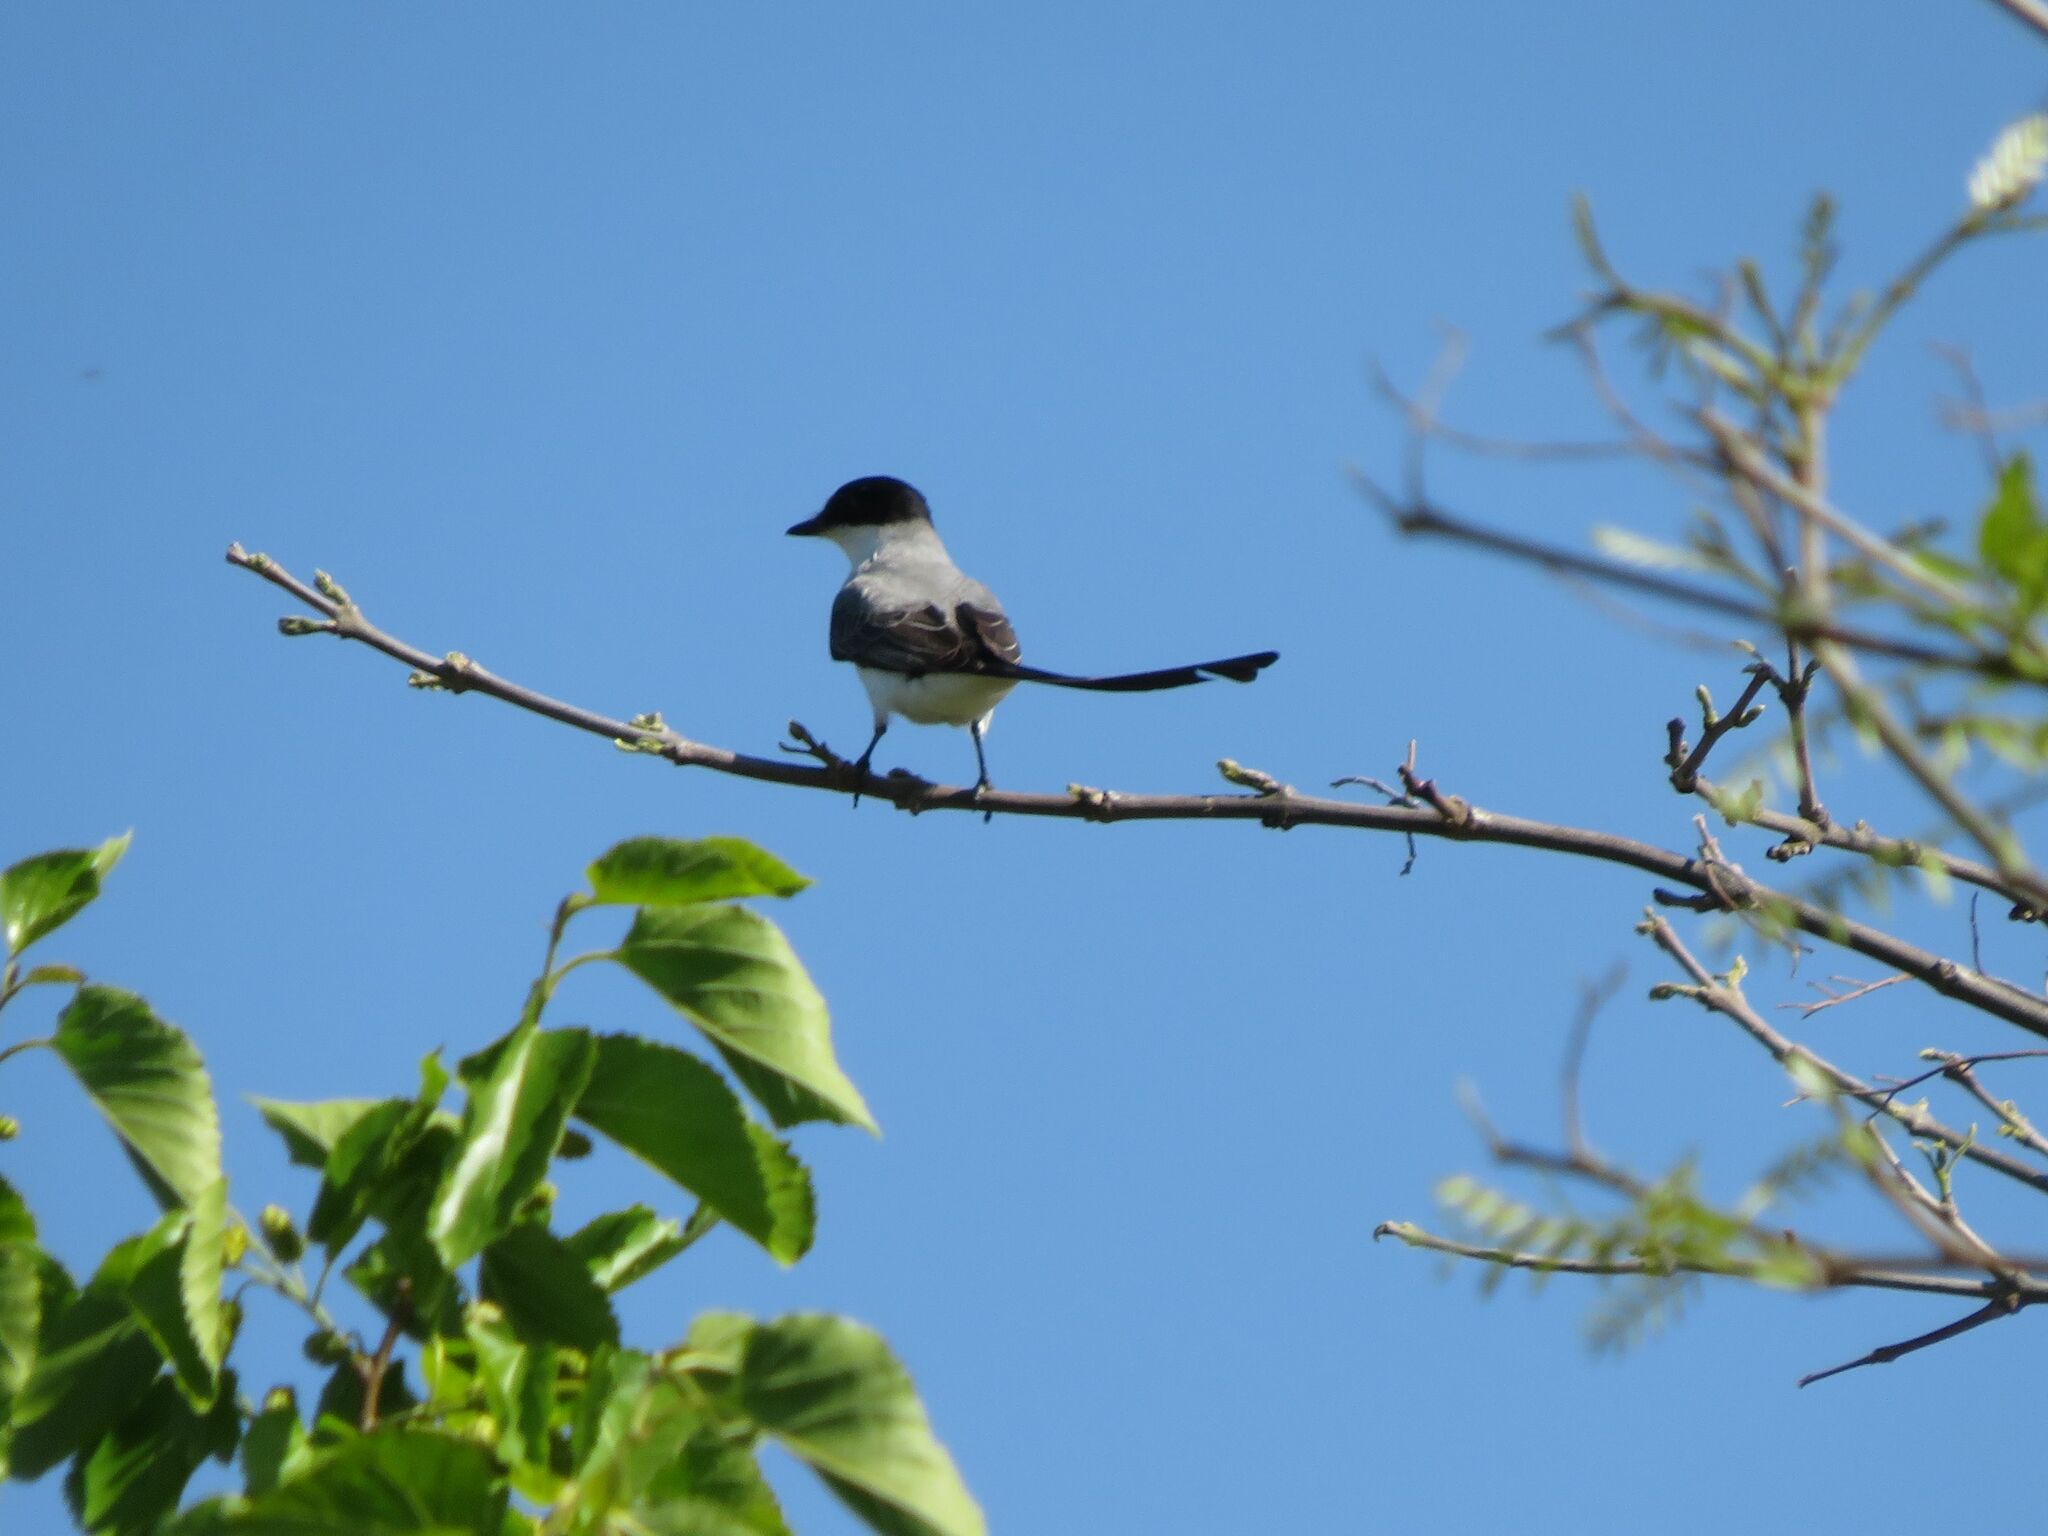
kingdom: Animalia
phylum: Chordata
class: Aves
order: Passeriformes
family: Tyrannidae
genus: Tyrannus
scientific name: Tyrannus savana
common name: Fork-tailed flycatcher
